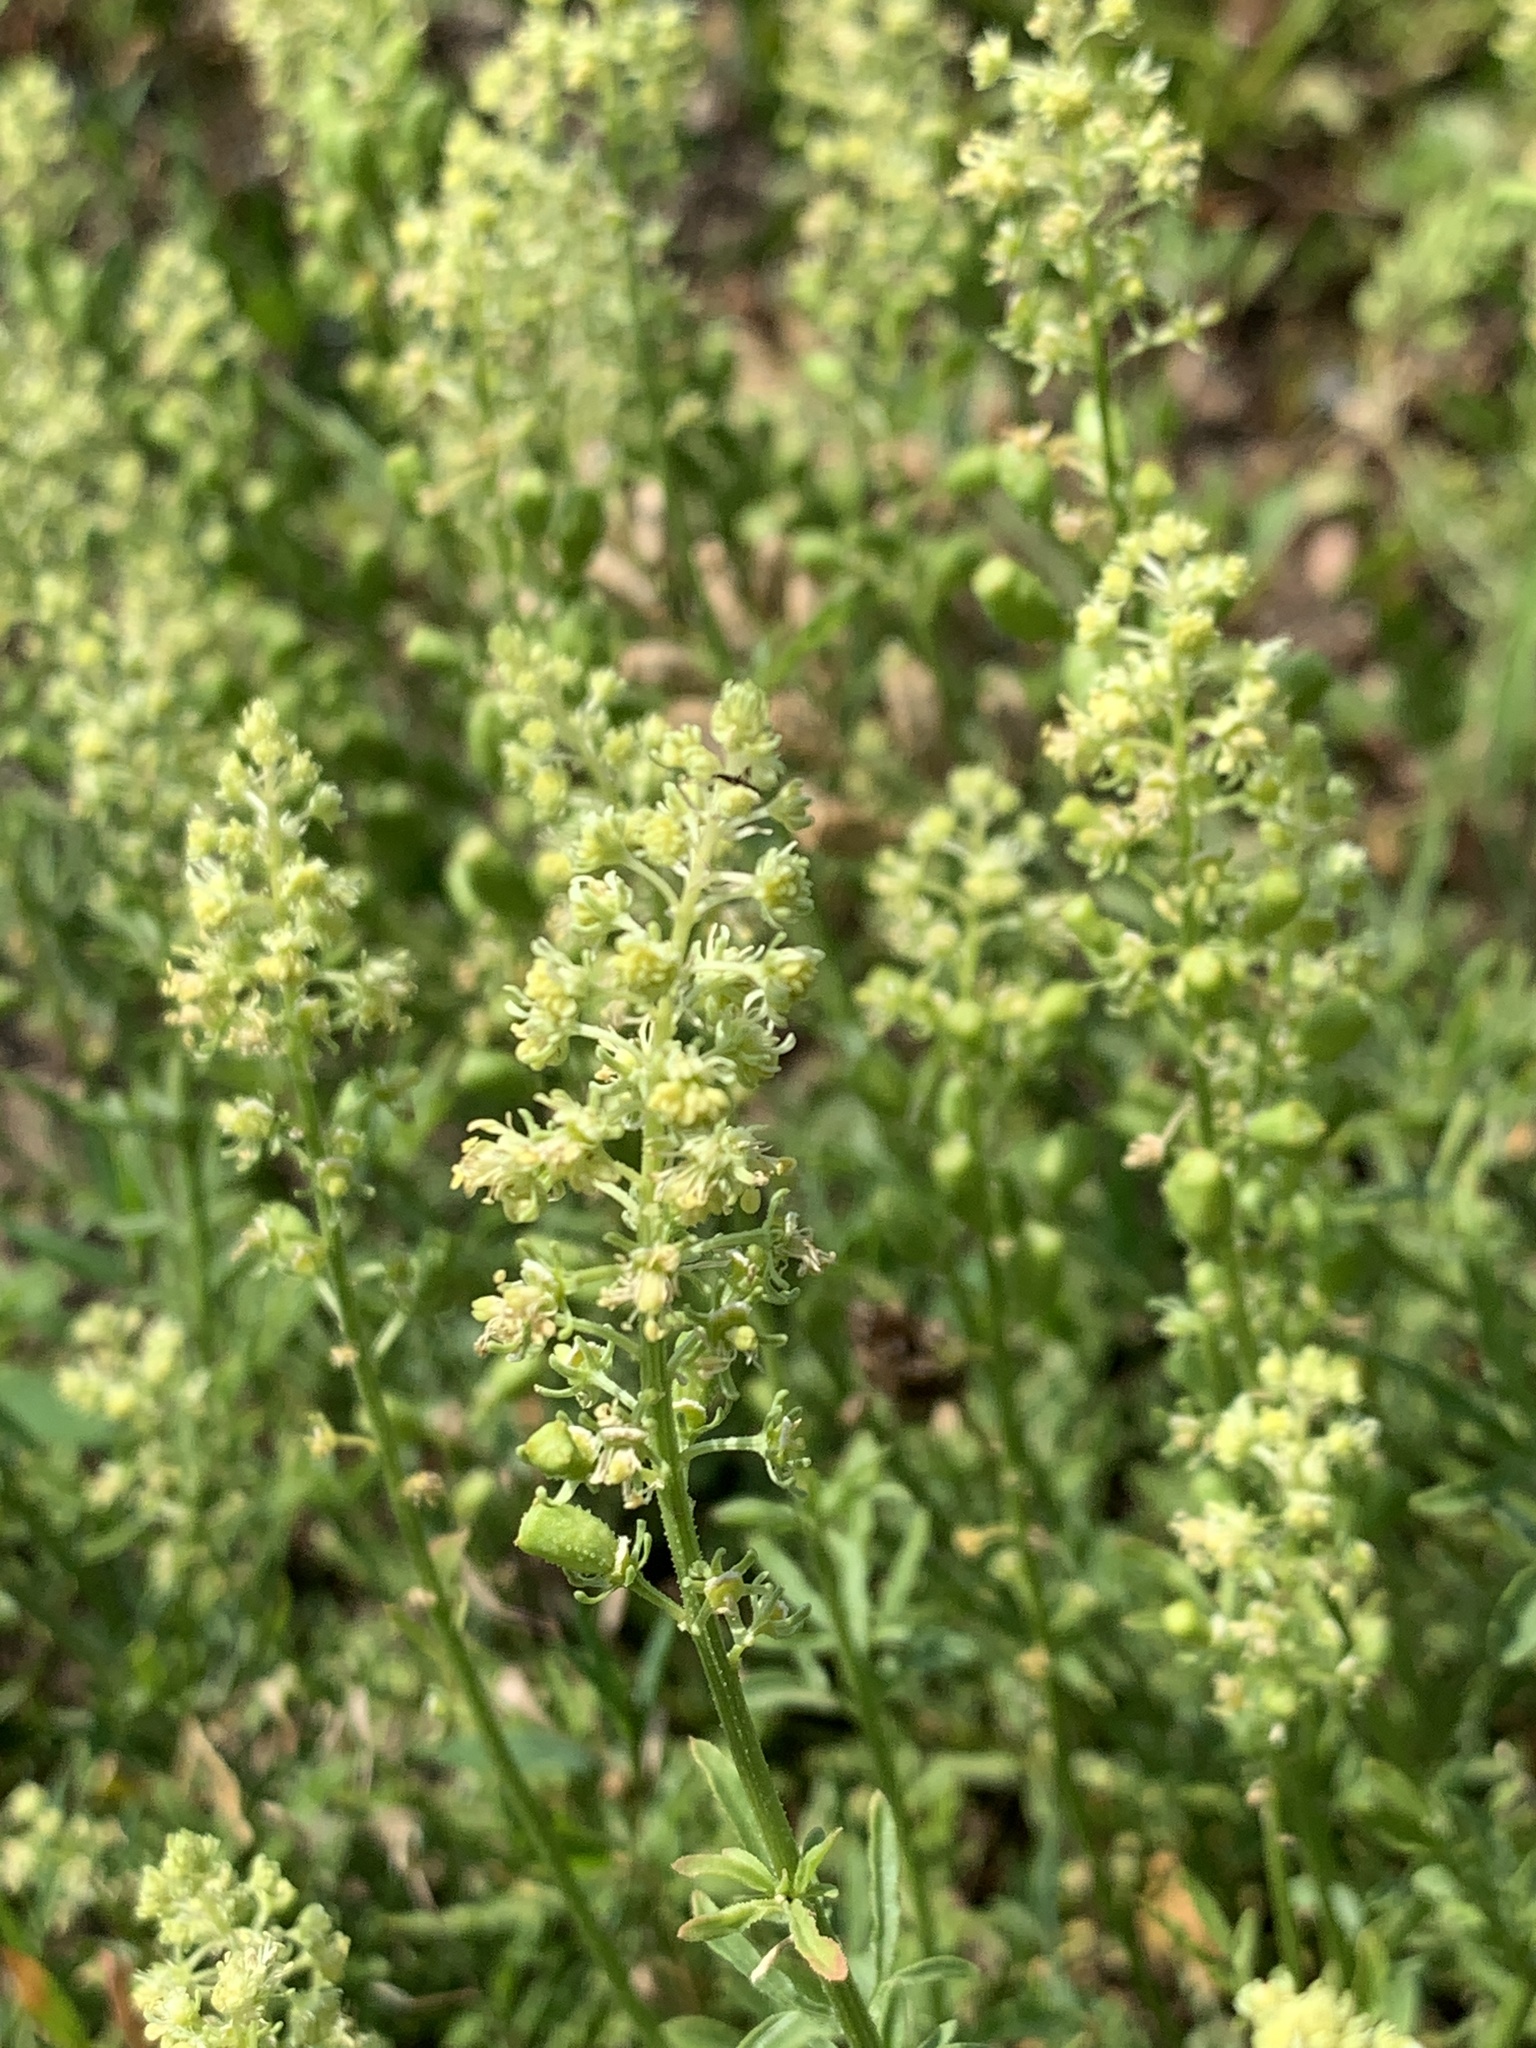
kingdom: Plantae
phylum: Tracheophyta
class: Magnoliopsida
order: Brassicales
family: Resedaceae
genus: Reseda
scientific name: Reseda lutea
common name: Wild mignonette
